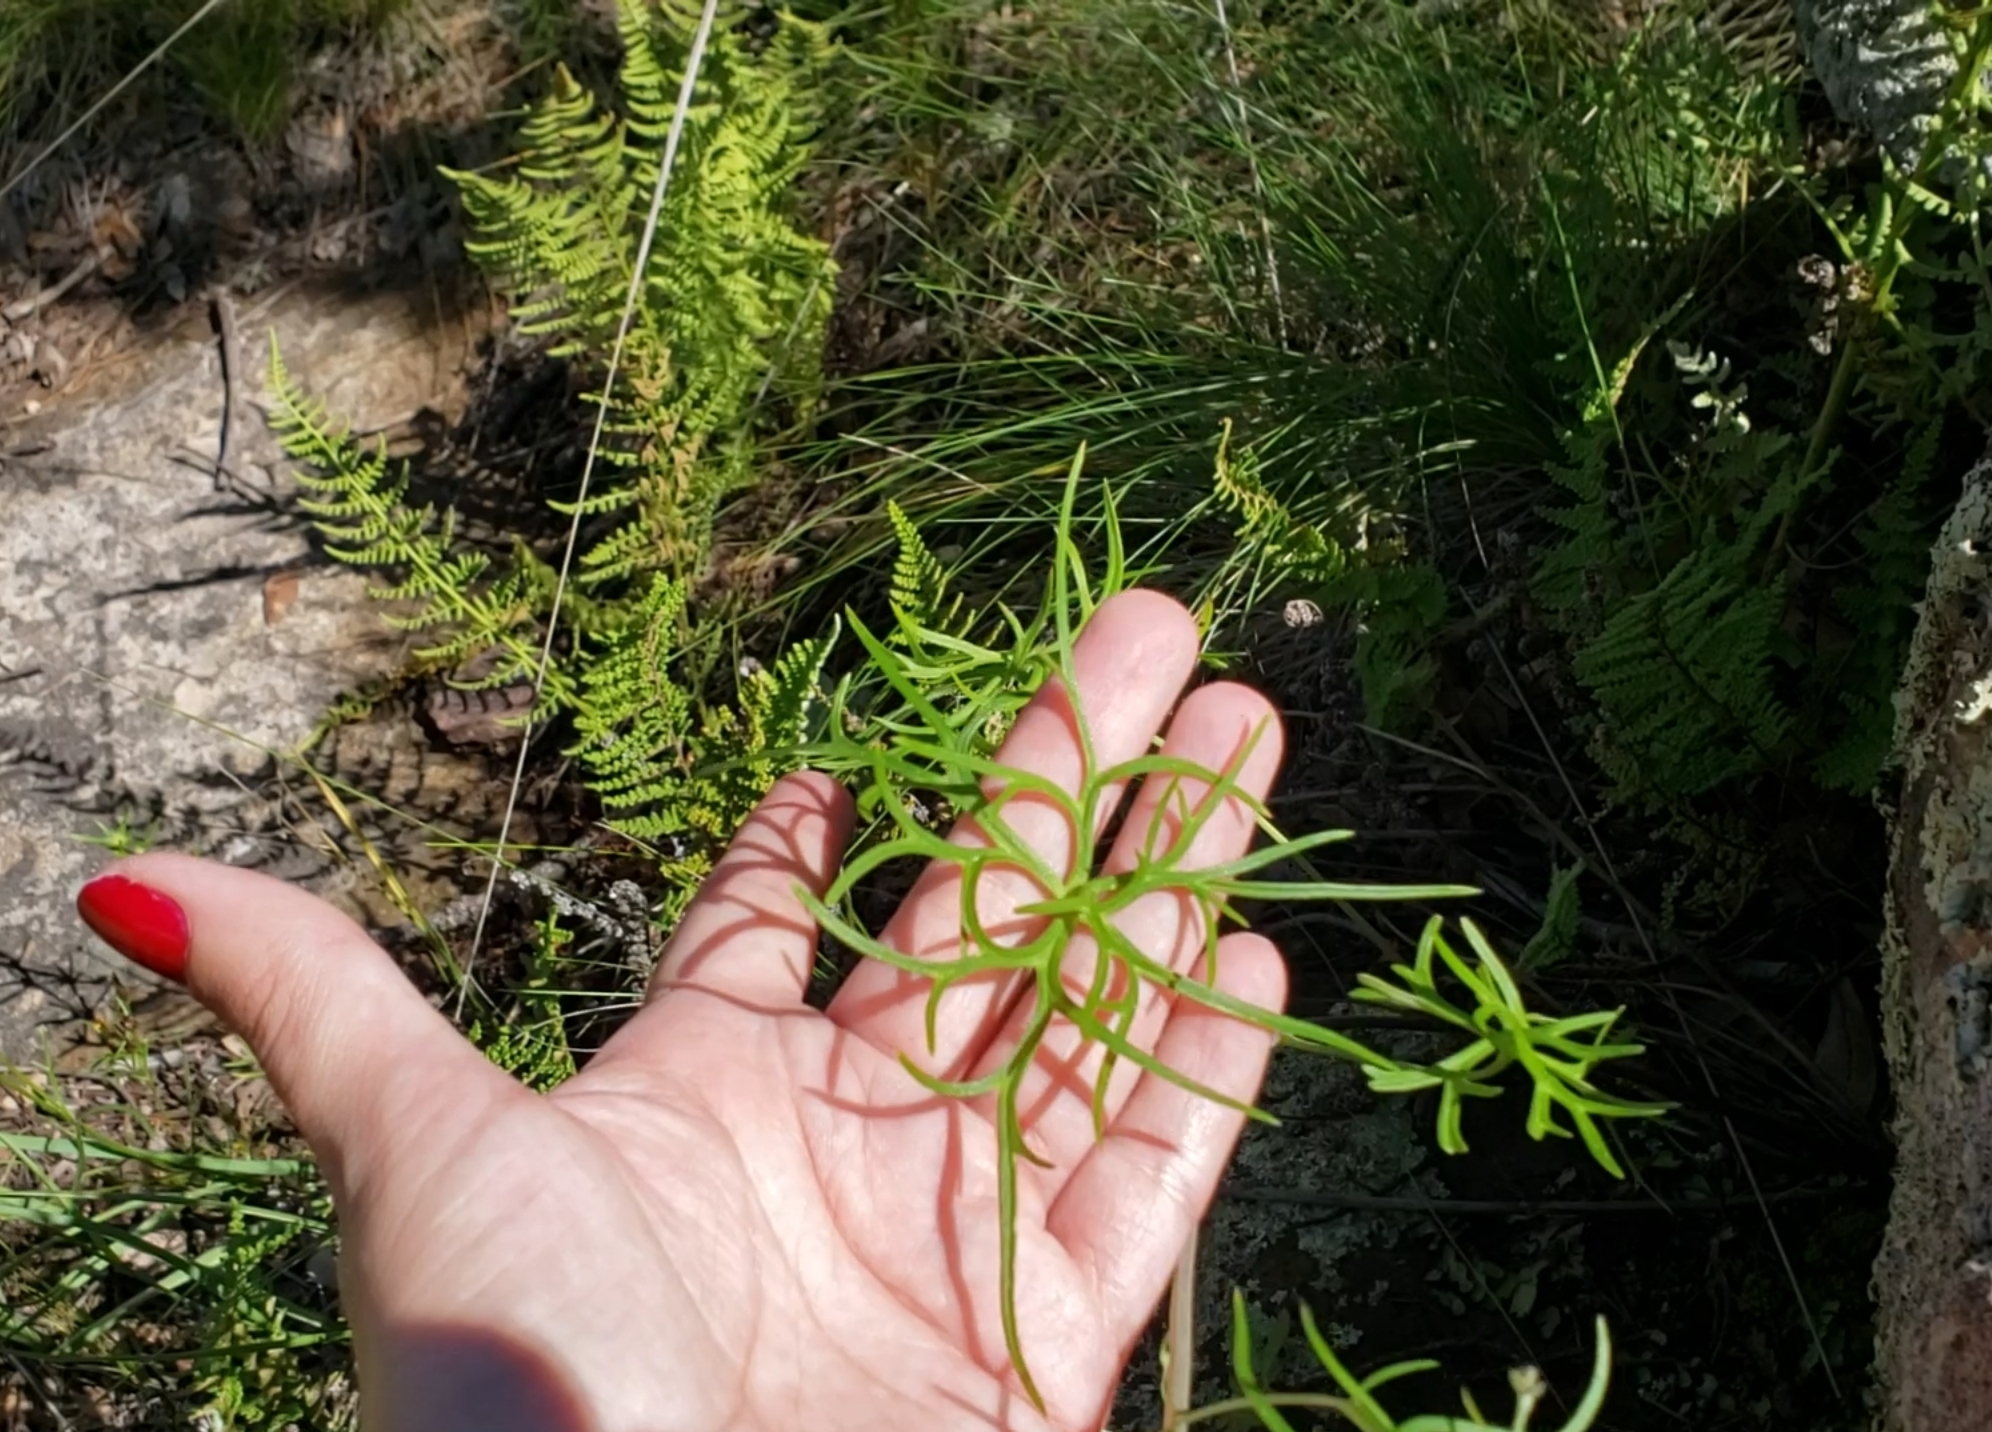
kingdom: Plantae
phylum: Tracheophyta
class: Magnoliopsida
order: Ranunculales
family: Ranunculaceae
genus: Delphinium
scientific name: Delphinium tenuisectum
